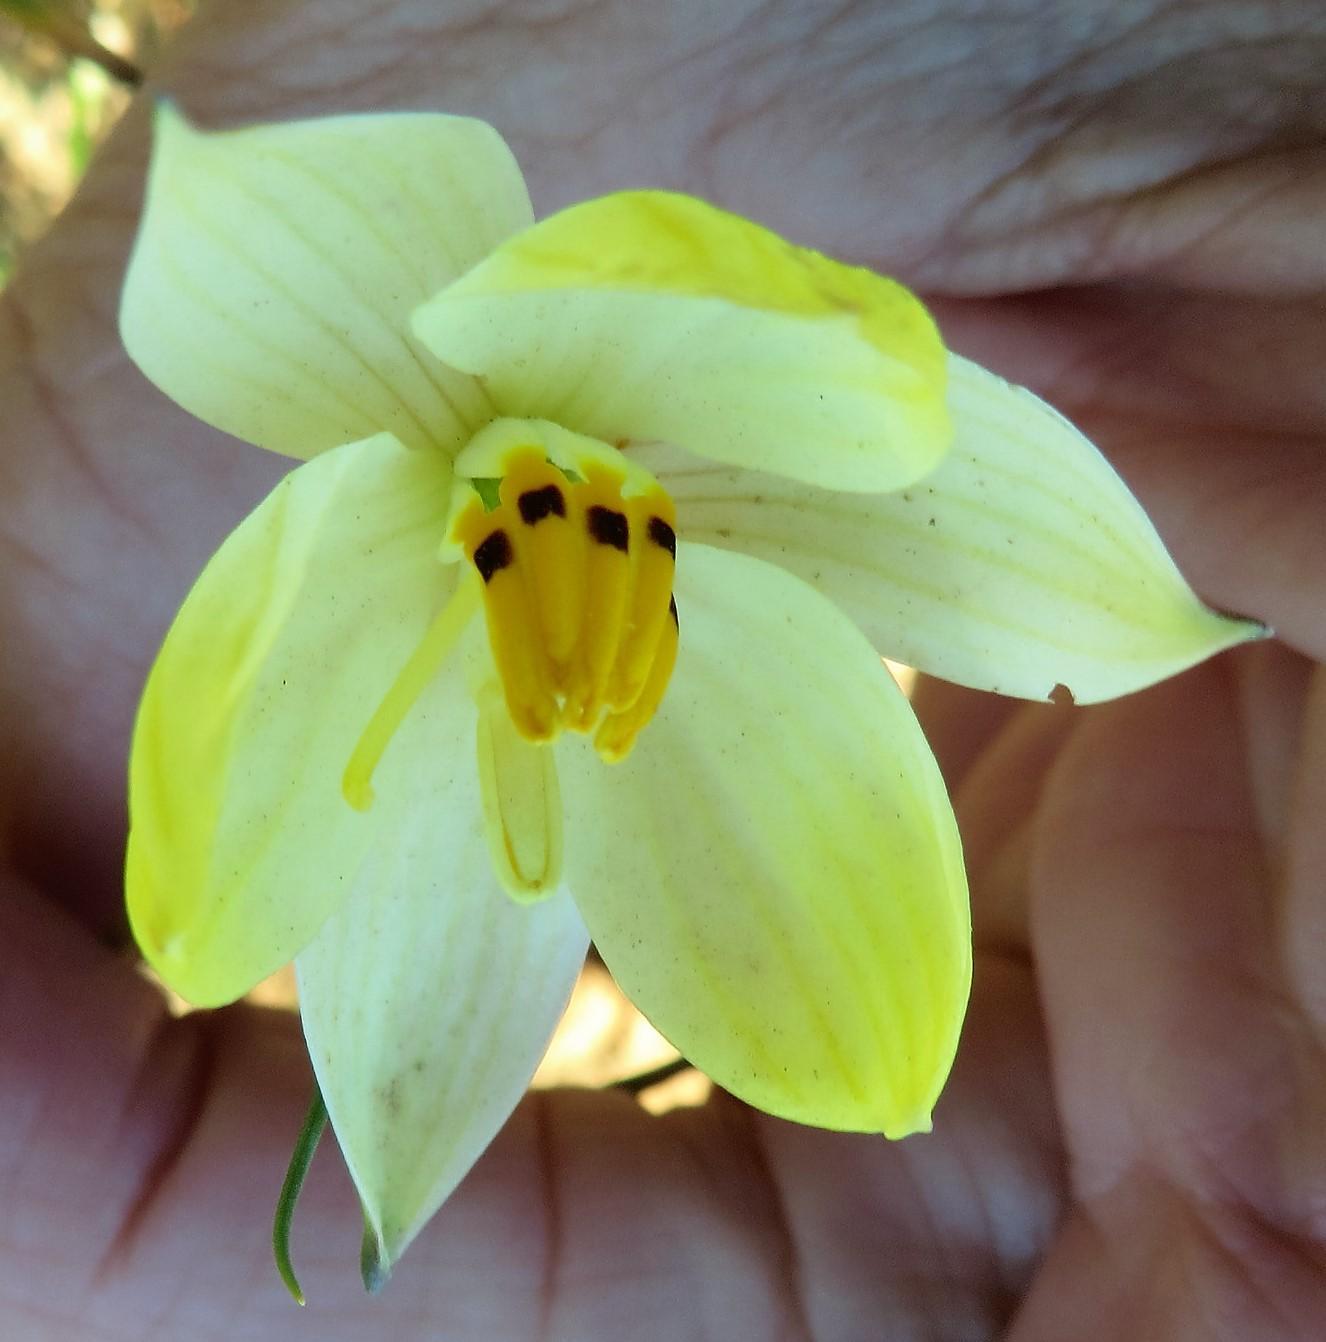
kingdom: Plantae
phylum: Tracheophyta
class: Liliopsida
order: Asparagales
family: Tecophilaeaceae
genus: Cyanella
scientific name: Cyanella alba
